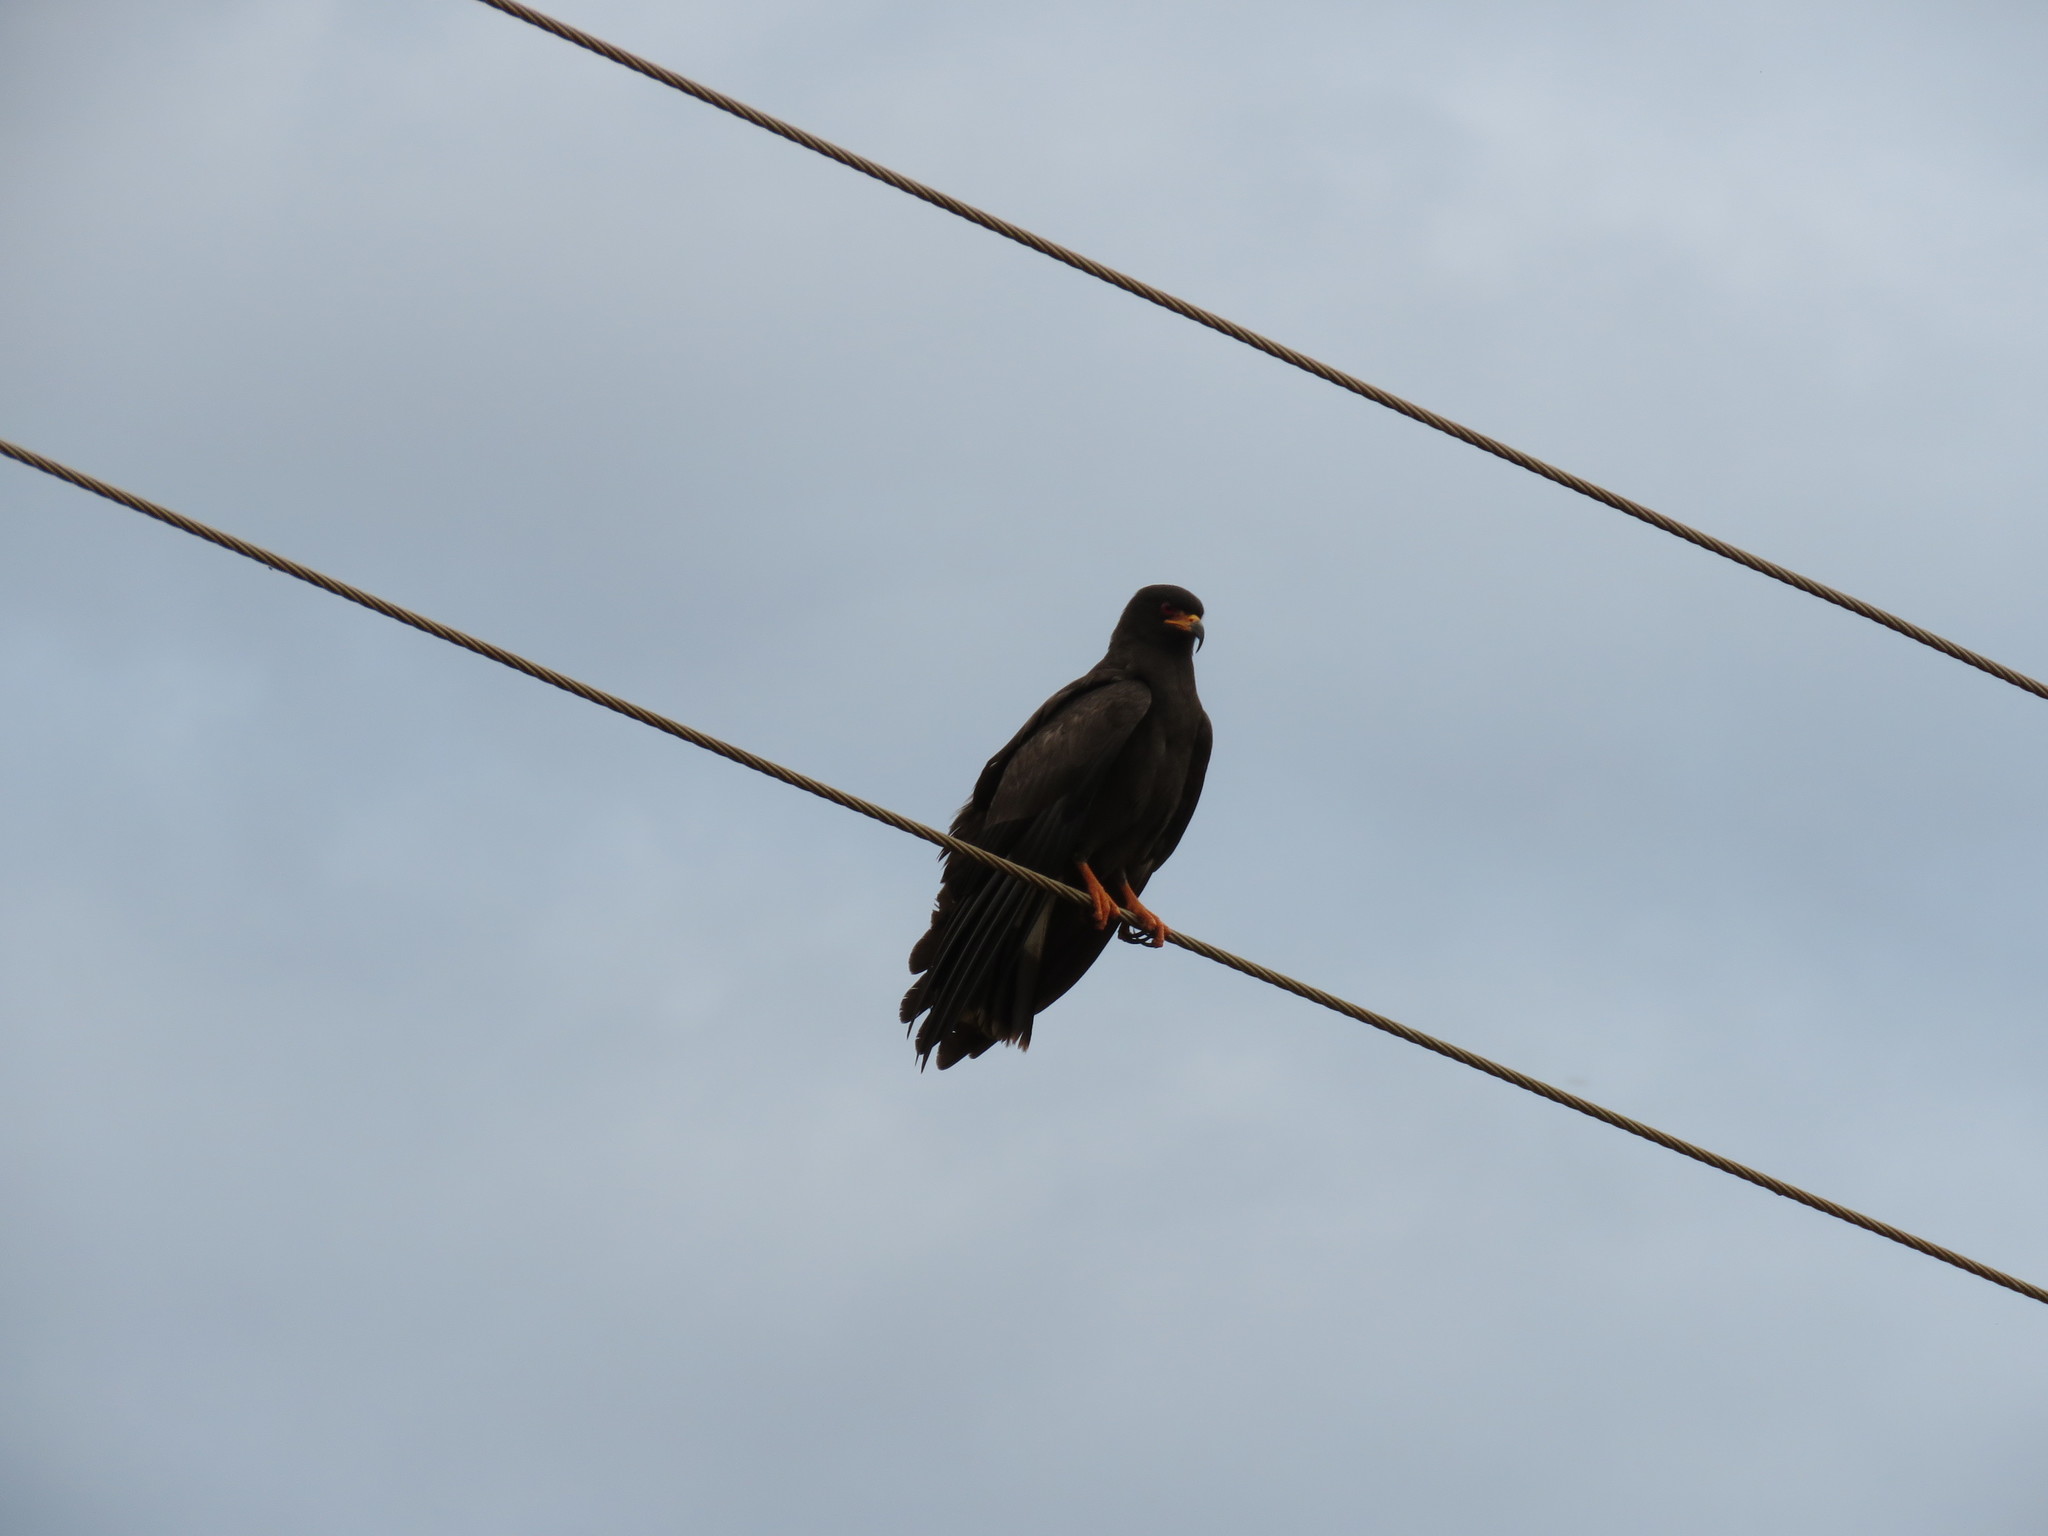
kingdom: Animalia
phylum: Chordata
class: Aves
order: Accipitriformes
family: Accipitridae
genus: Rostrhamus
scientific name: Rostrhamus sociabilis
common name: Snail kite
